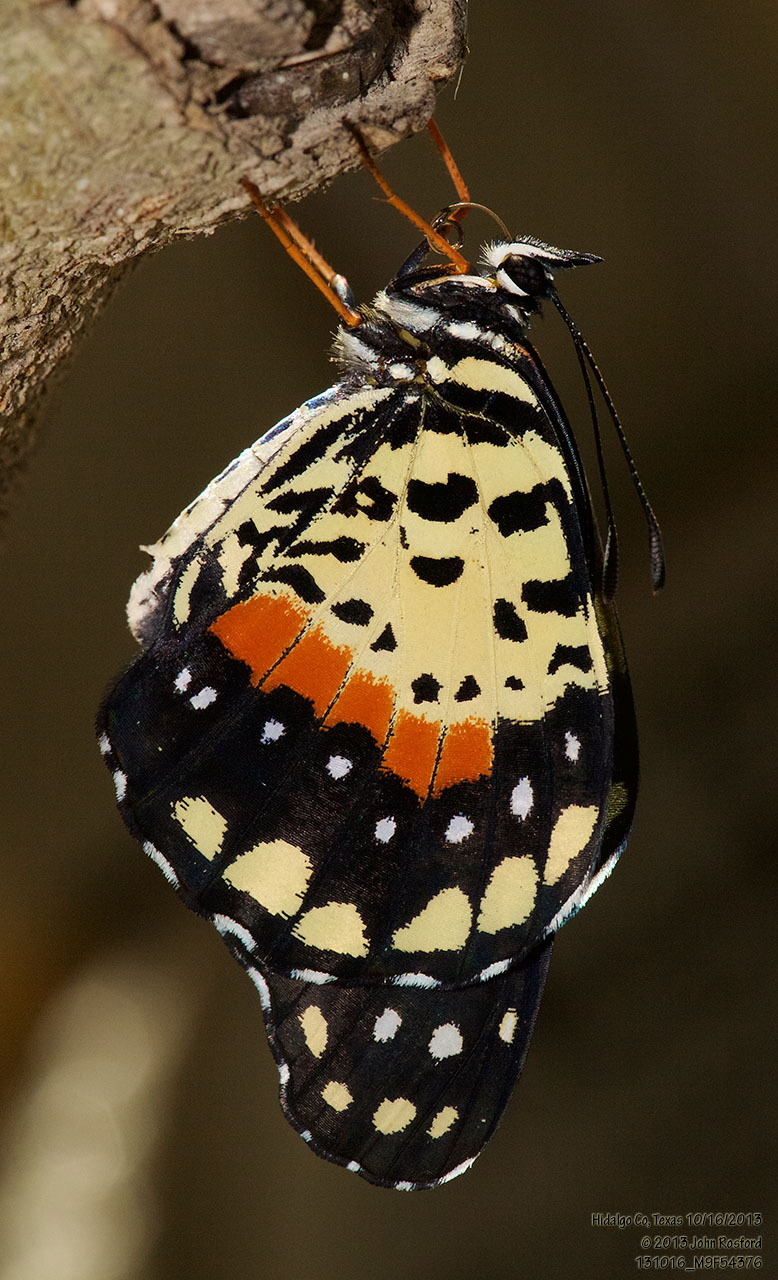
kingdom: Animalia
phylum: Arthropoda
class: Insecta
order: Lepidoptera
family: Nymphalidae
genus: Chlosyne
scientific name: Chlosyne janais
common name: Crimson patch
